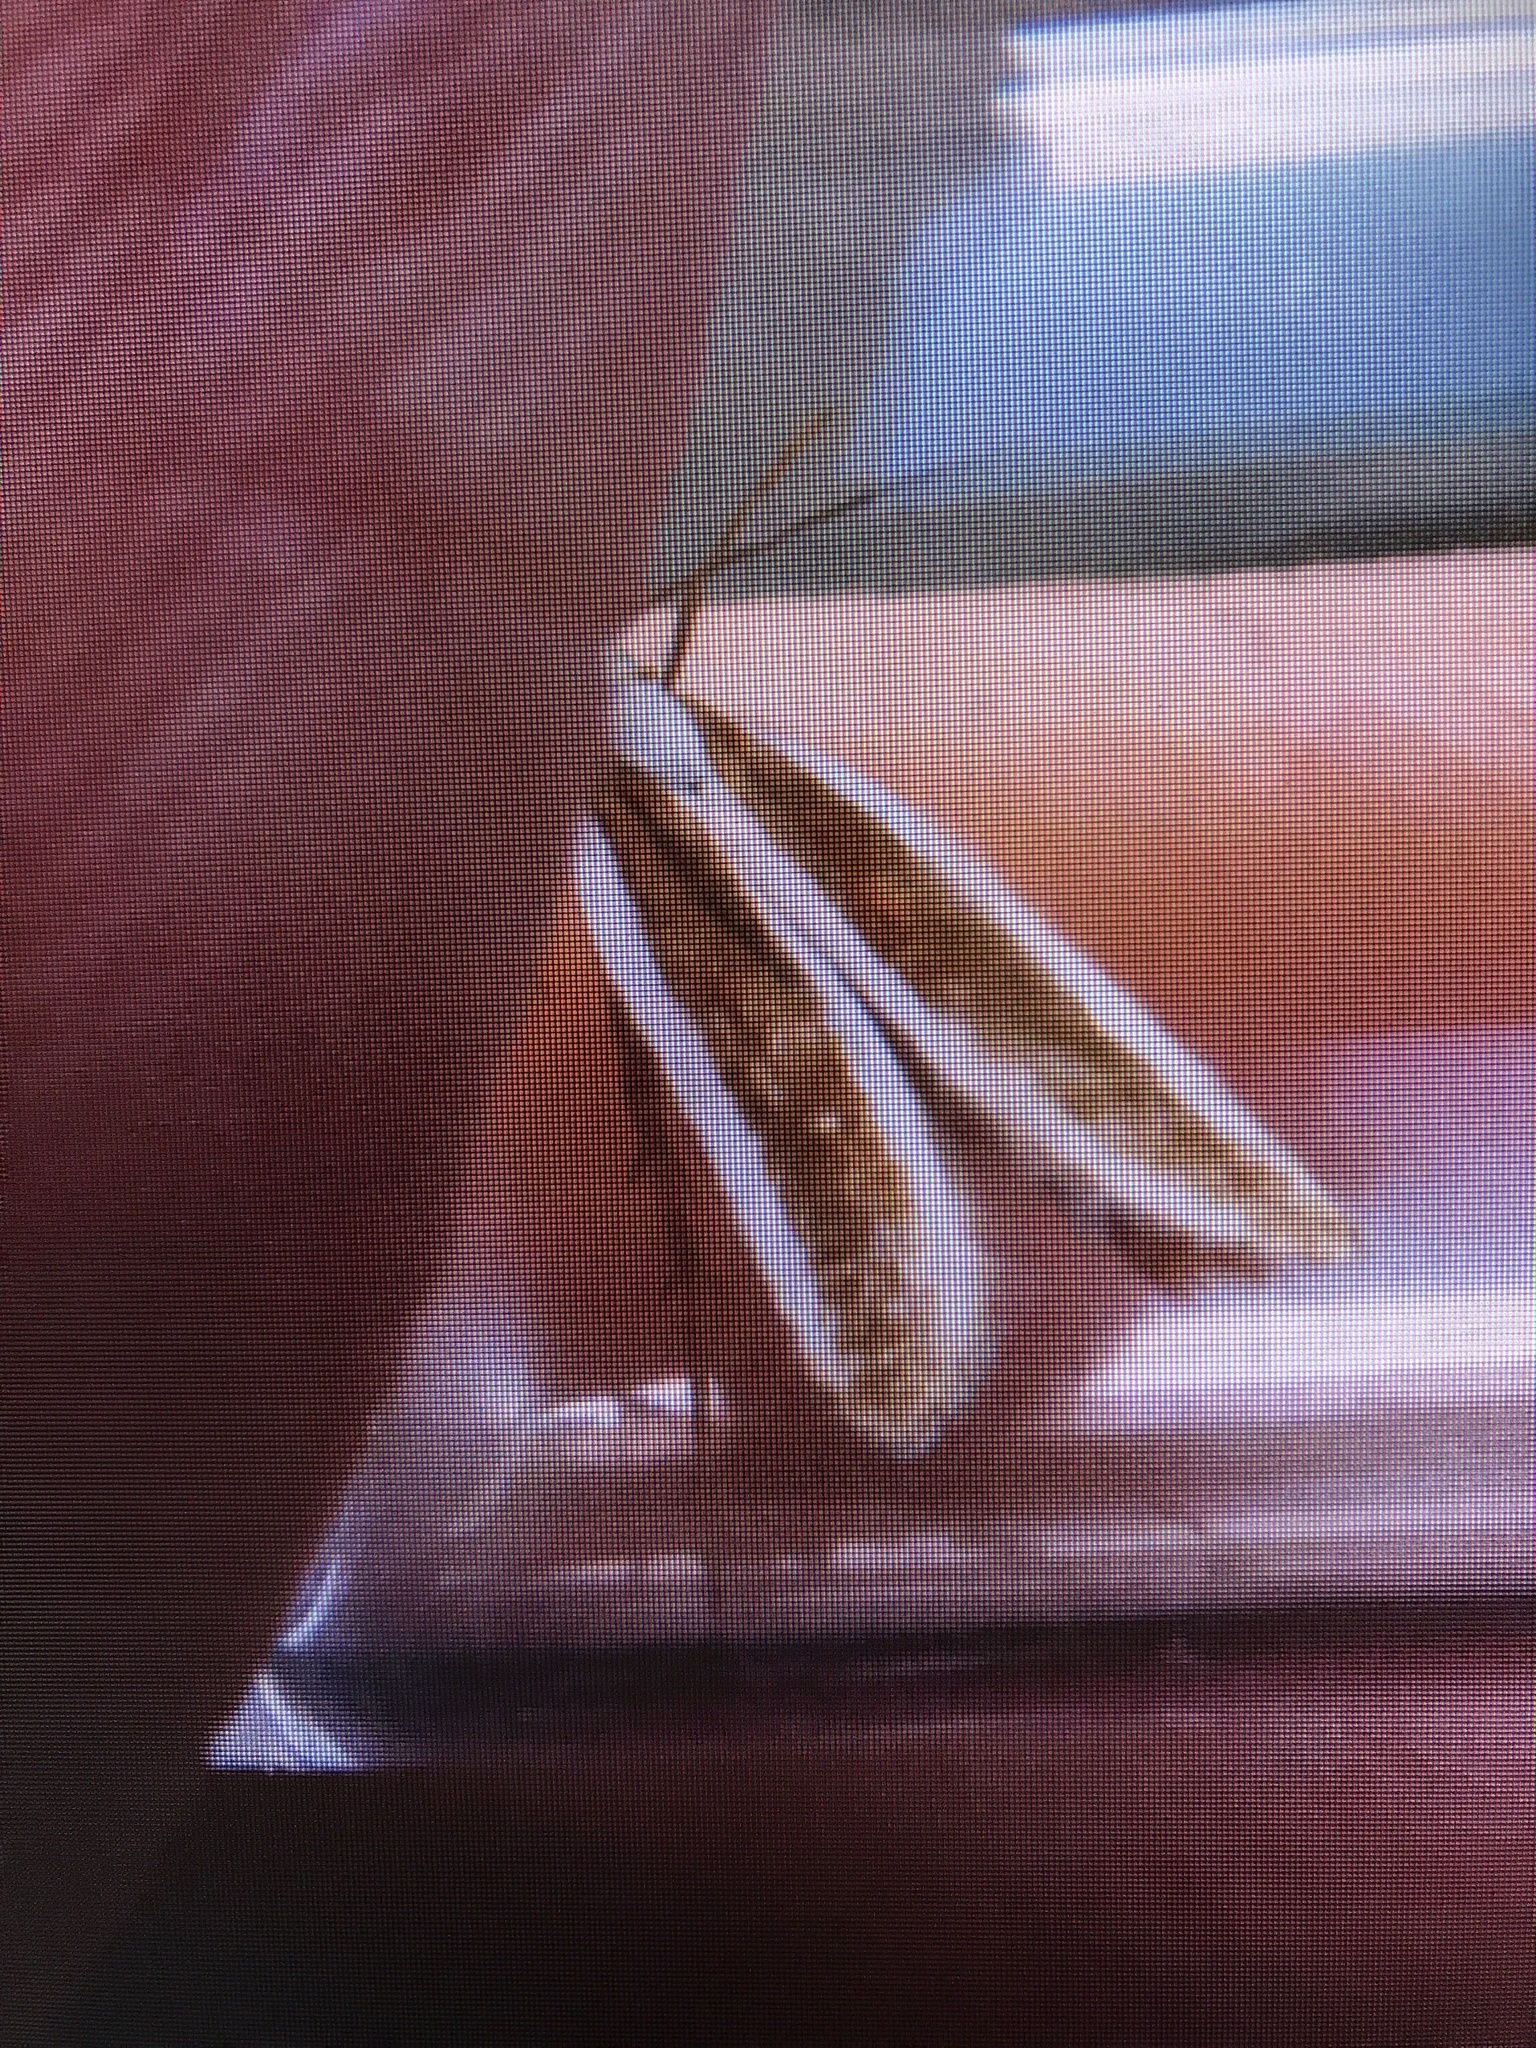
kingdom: Animalia
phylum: Arthropoda
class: Insecta
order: Lepidoptera
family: Gelechiidae
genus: Dichomeris
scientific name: Dichomeris marginella
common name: Juniper webworm
